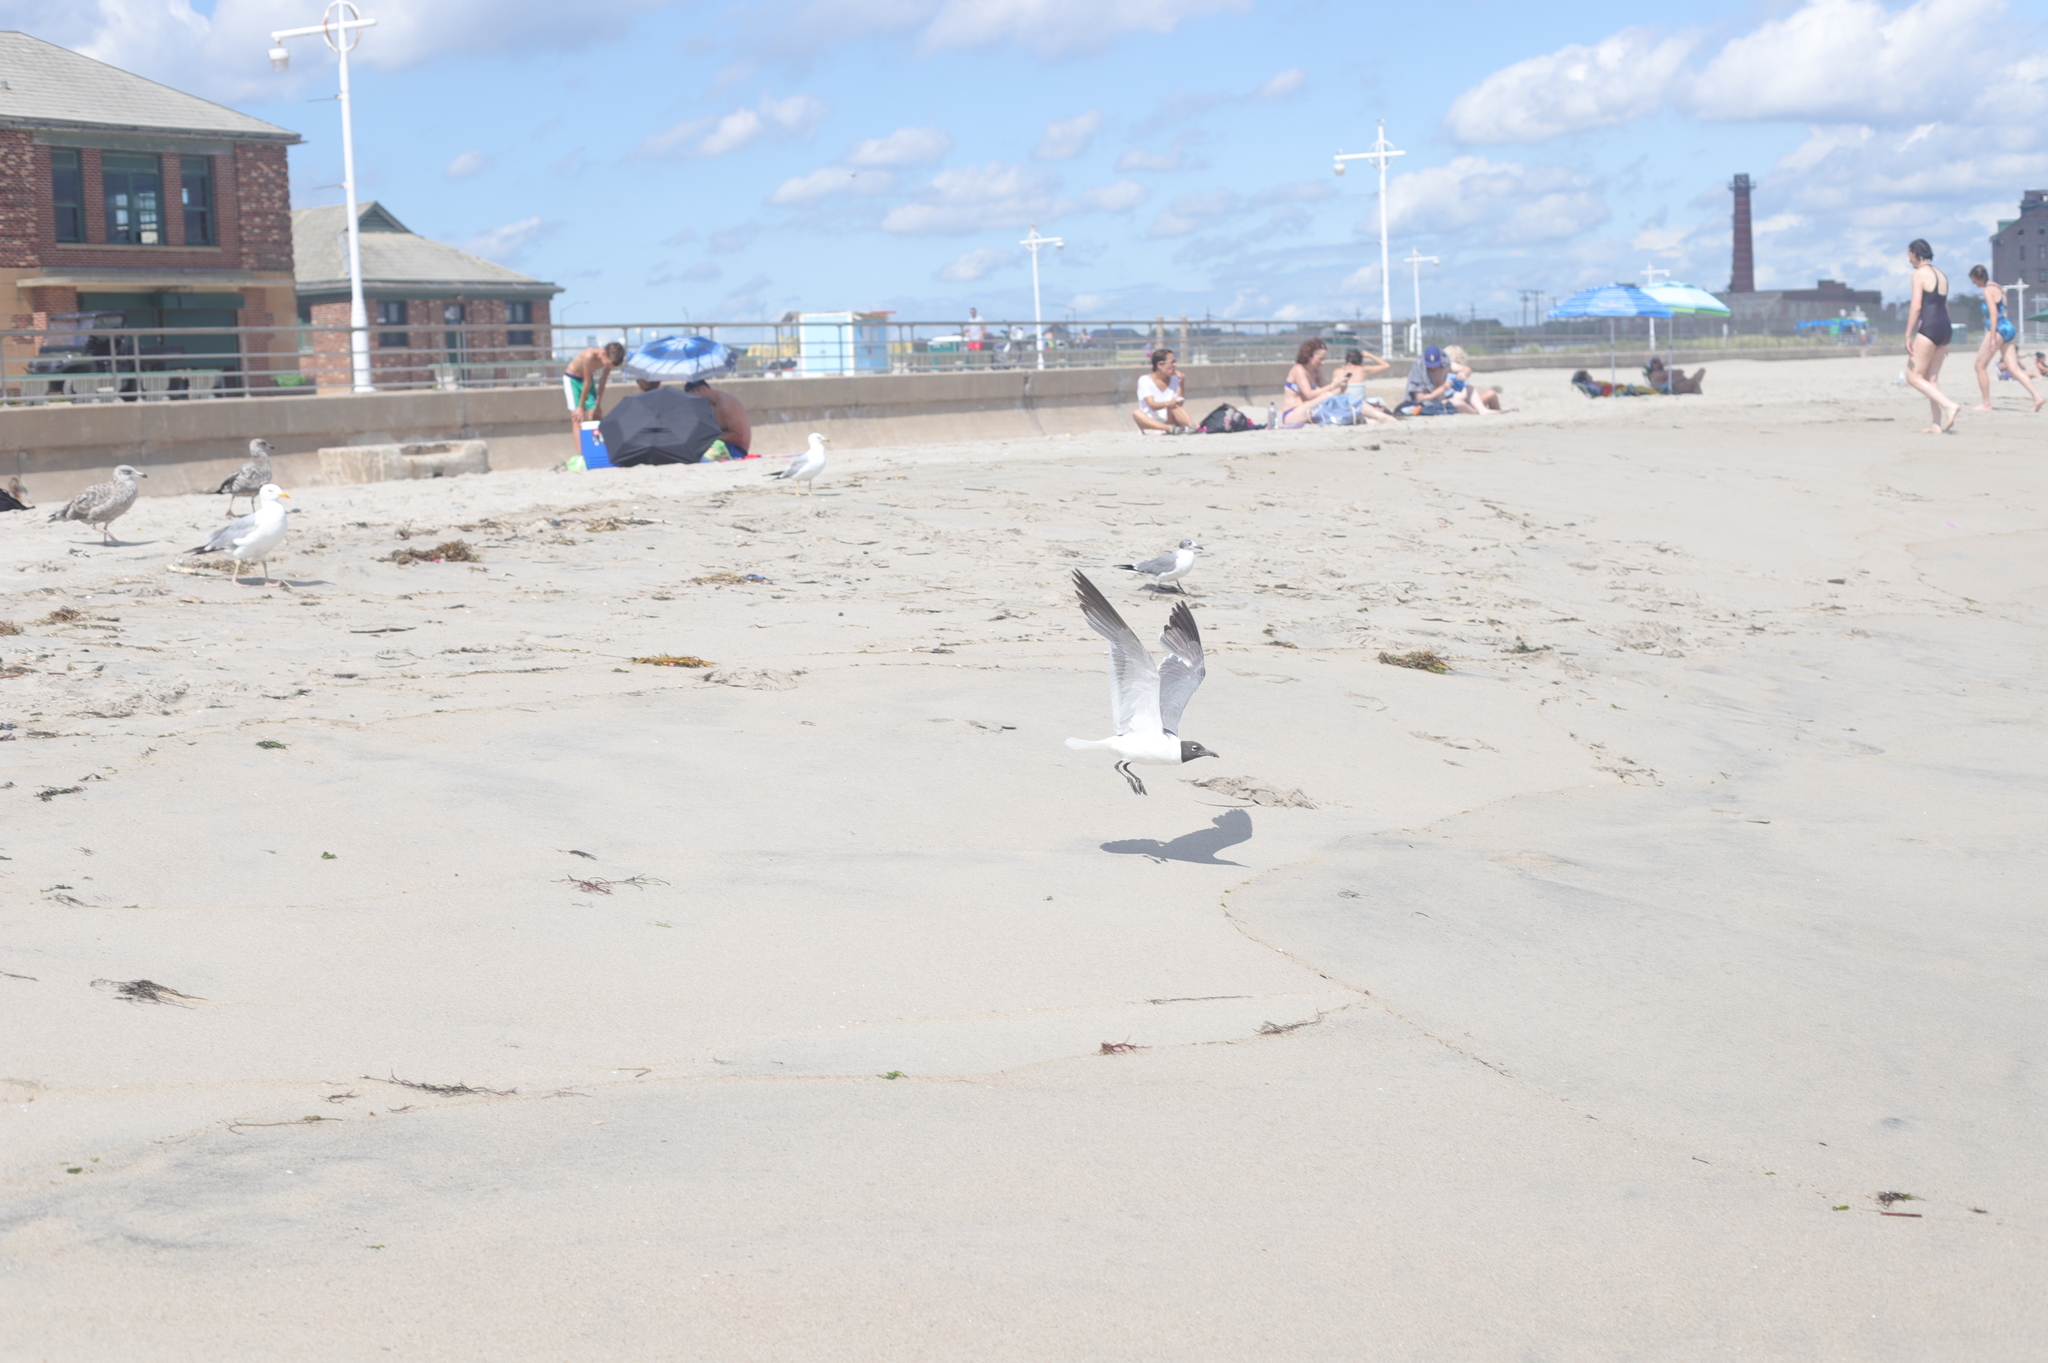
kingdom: Animalia
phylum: Chordata
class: Aves
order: Charadriiformes
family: Laridae
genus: Leucophaeus
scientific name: Leucophaeus atricilla
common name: Laughing gull
